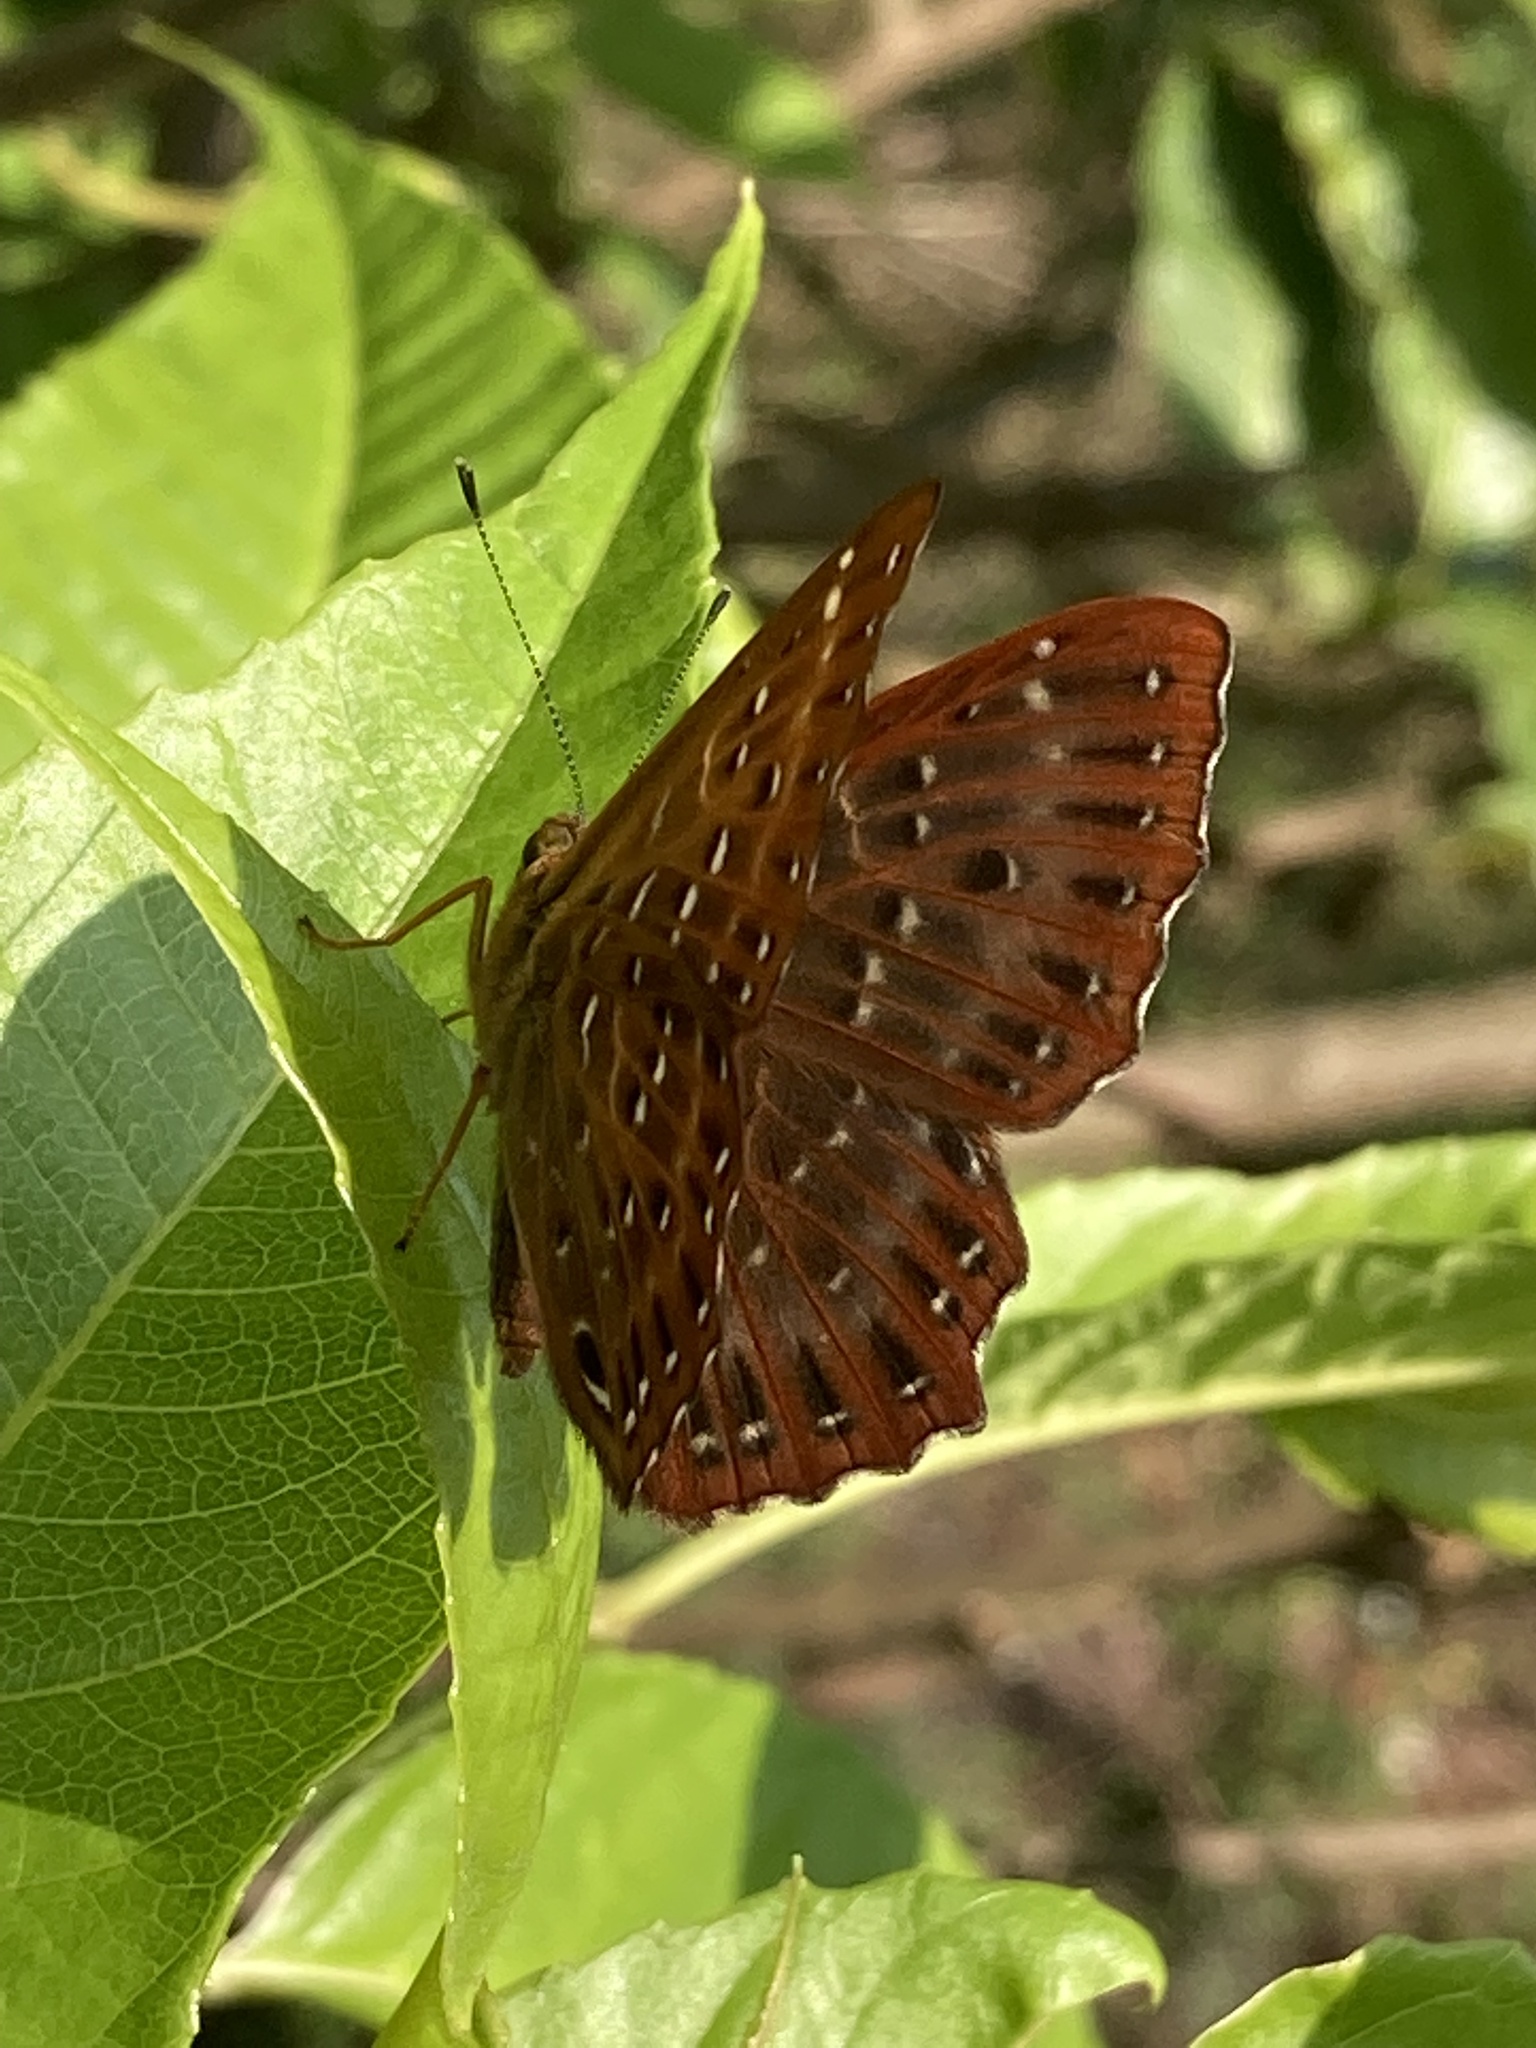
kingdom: Animalia
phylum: Arthropoda
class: Insecta
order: Lepidoptera
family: Riodinidae
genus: Zemeros
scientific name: Zemeros flegyas
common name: Punchinello
